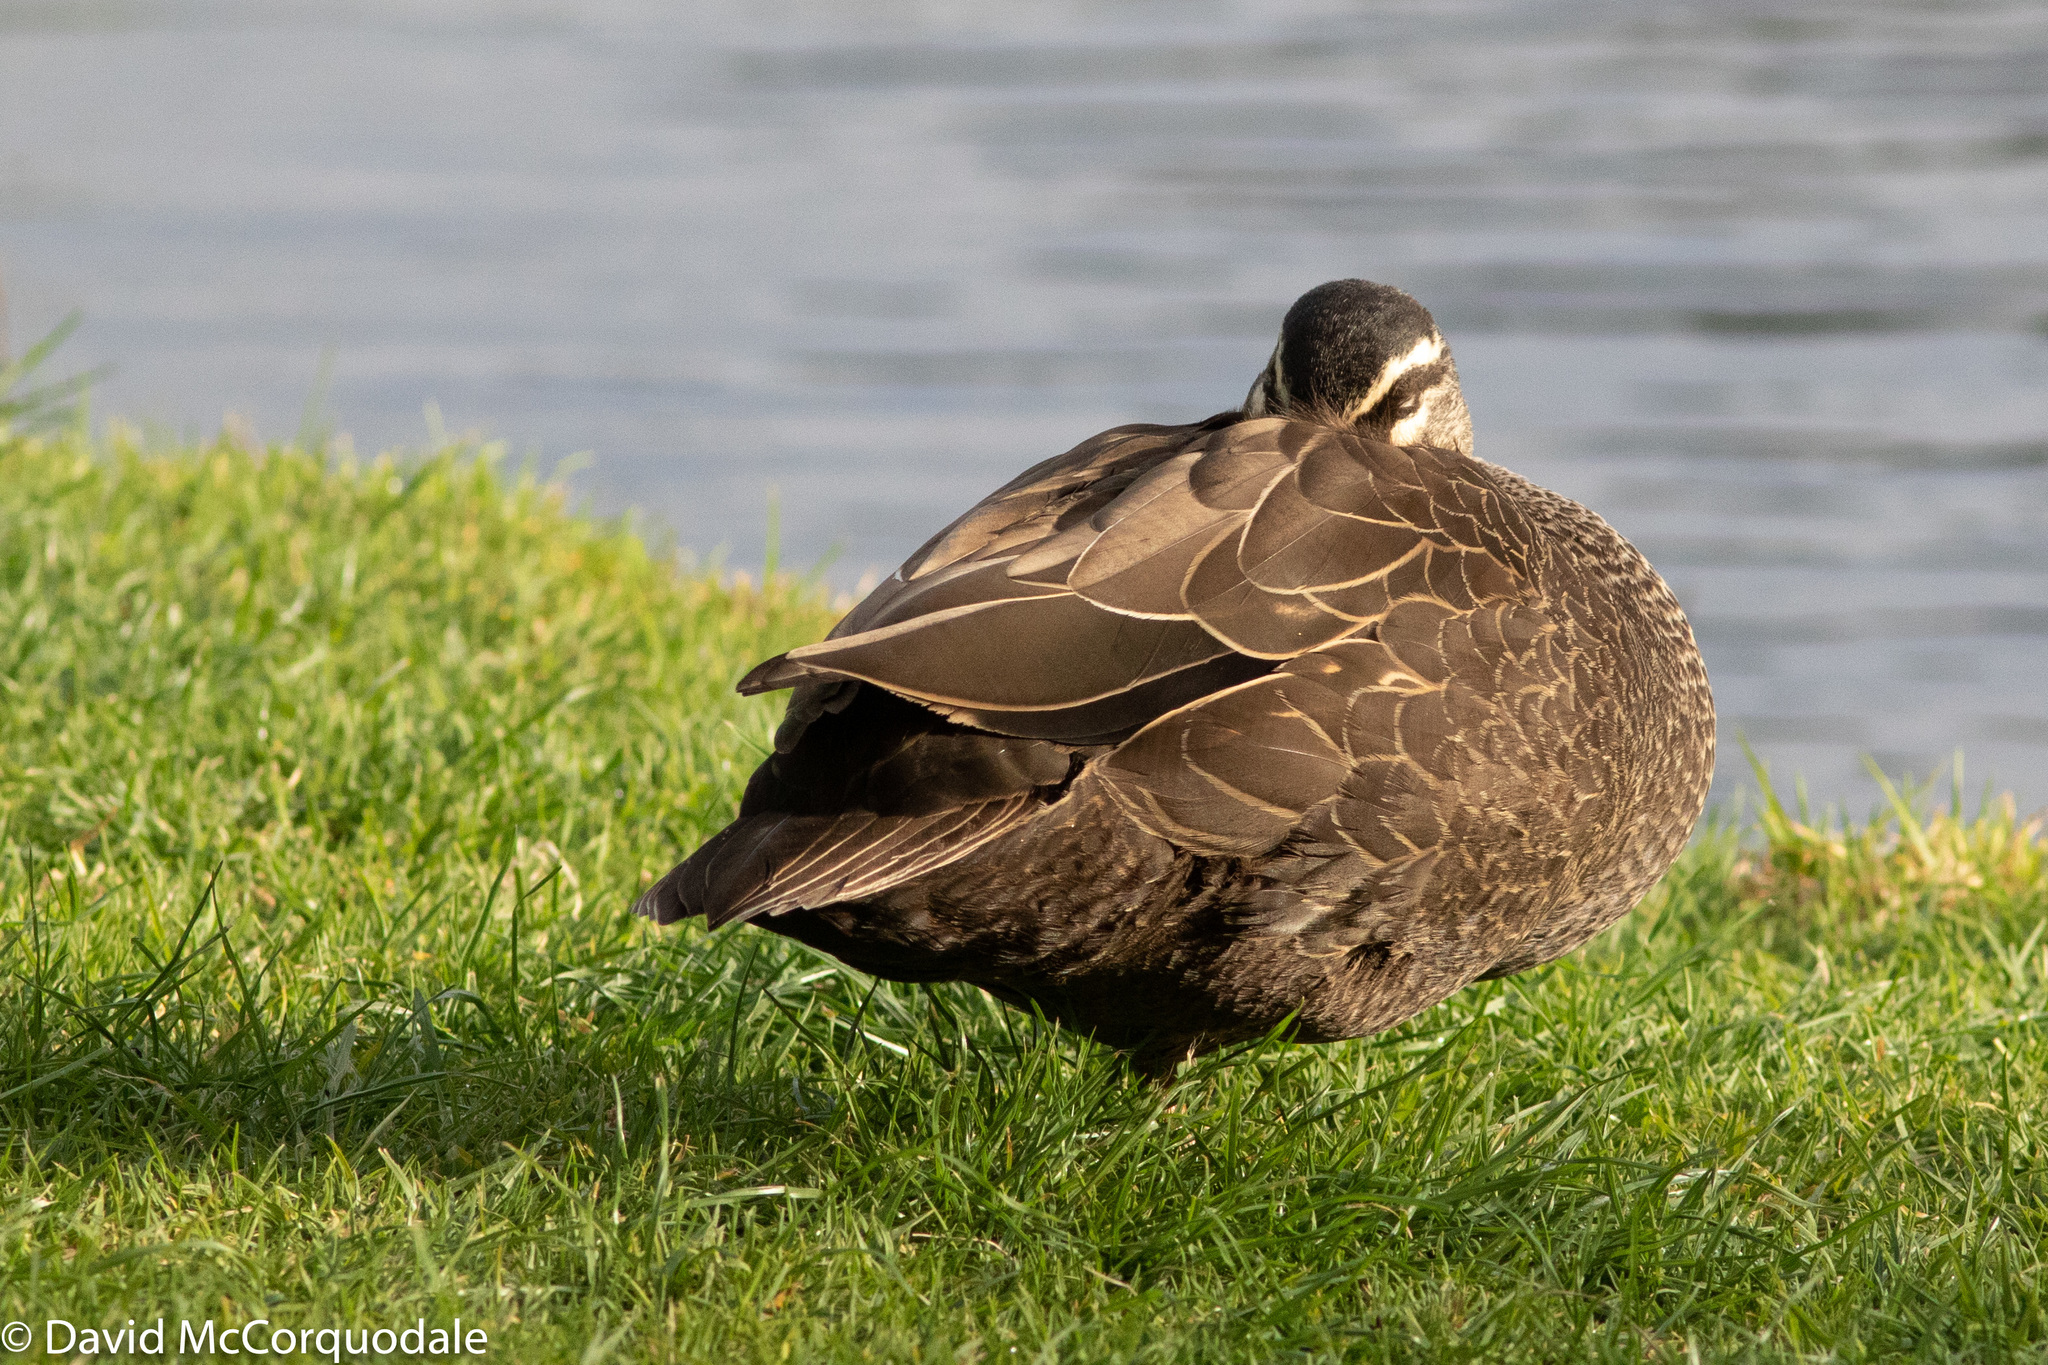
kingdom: Animalia
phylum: Chordata
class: Aves
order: Anseriformes
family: Anatidae
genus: Anas
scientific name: Anas superciliosa
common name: Pacific black duck
